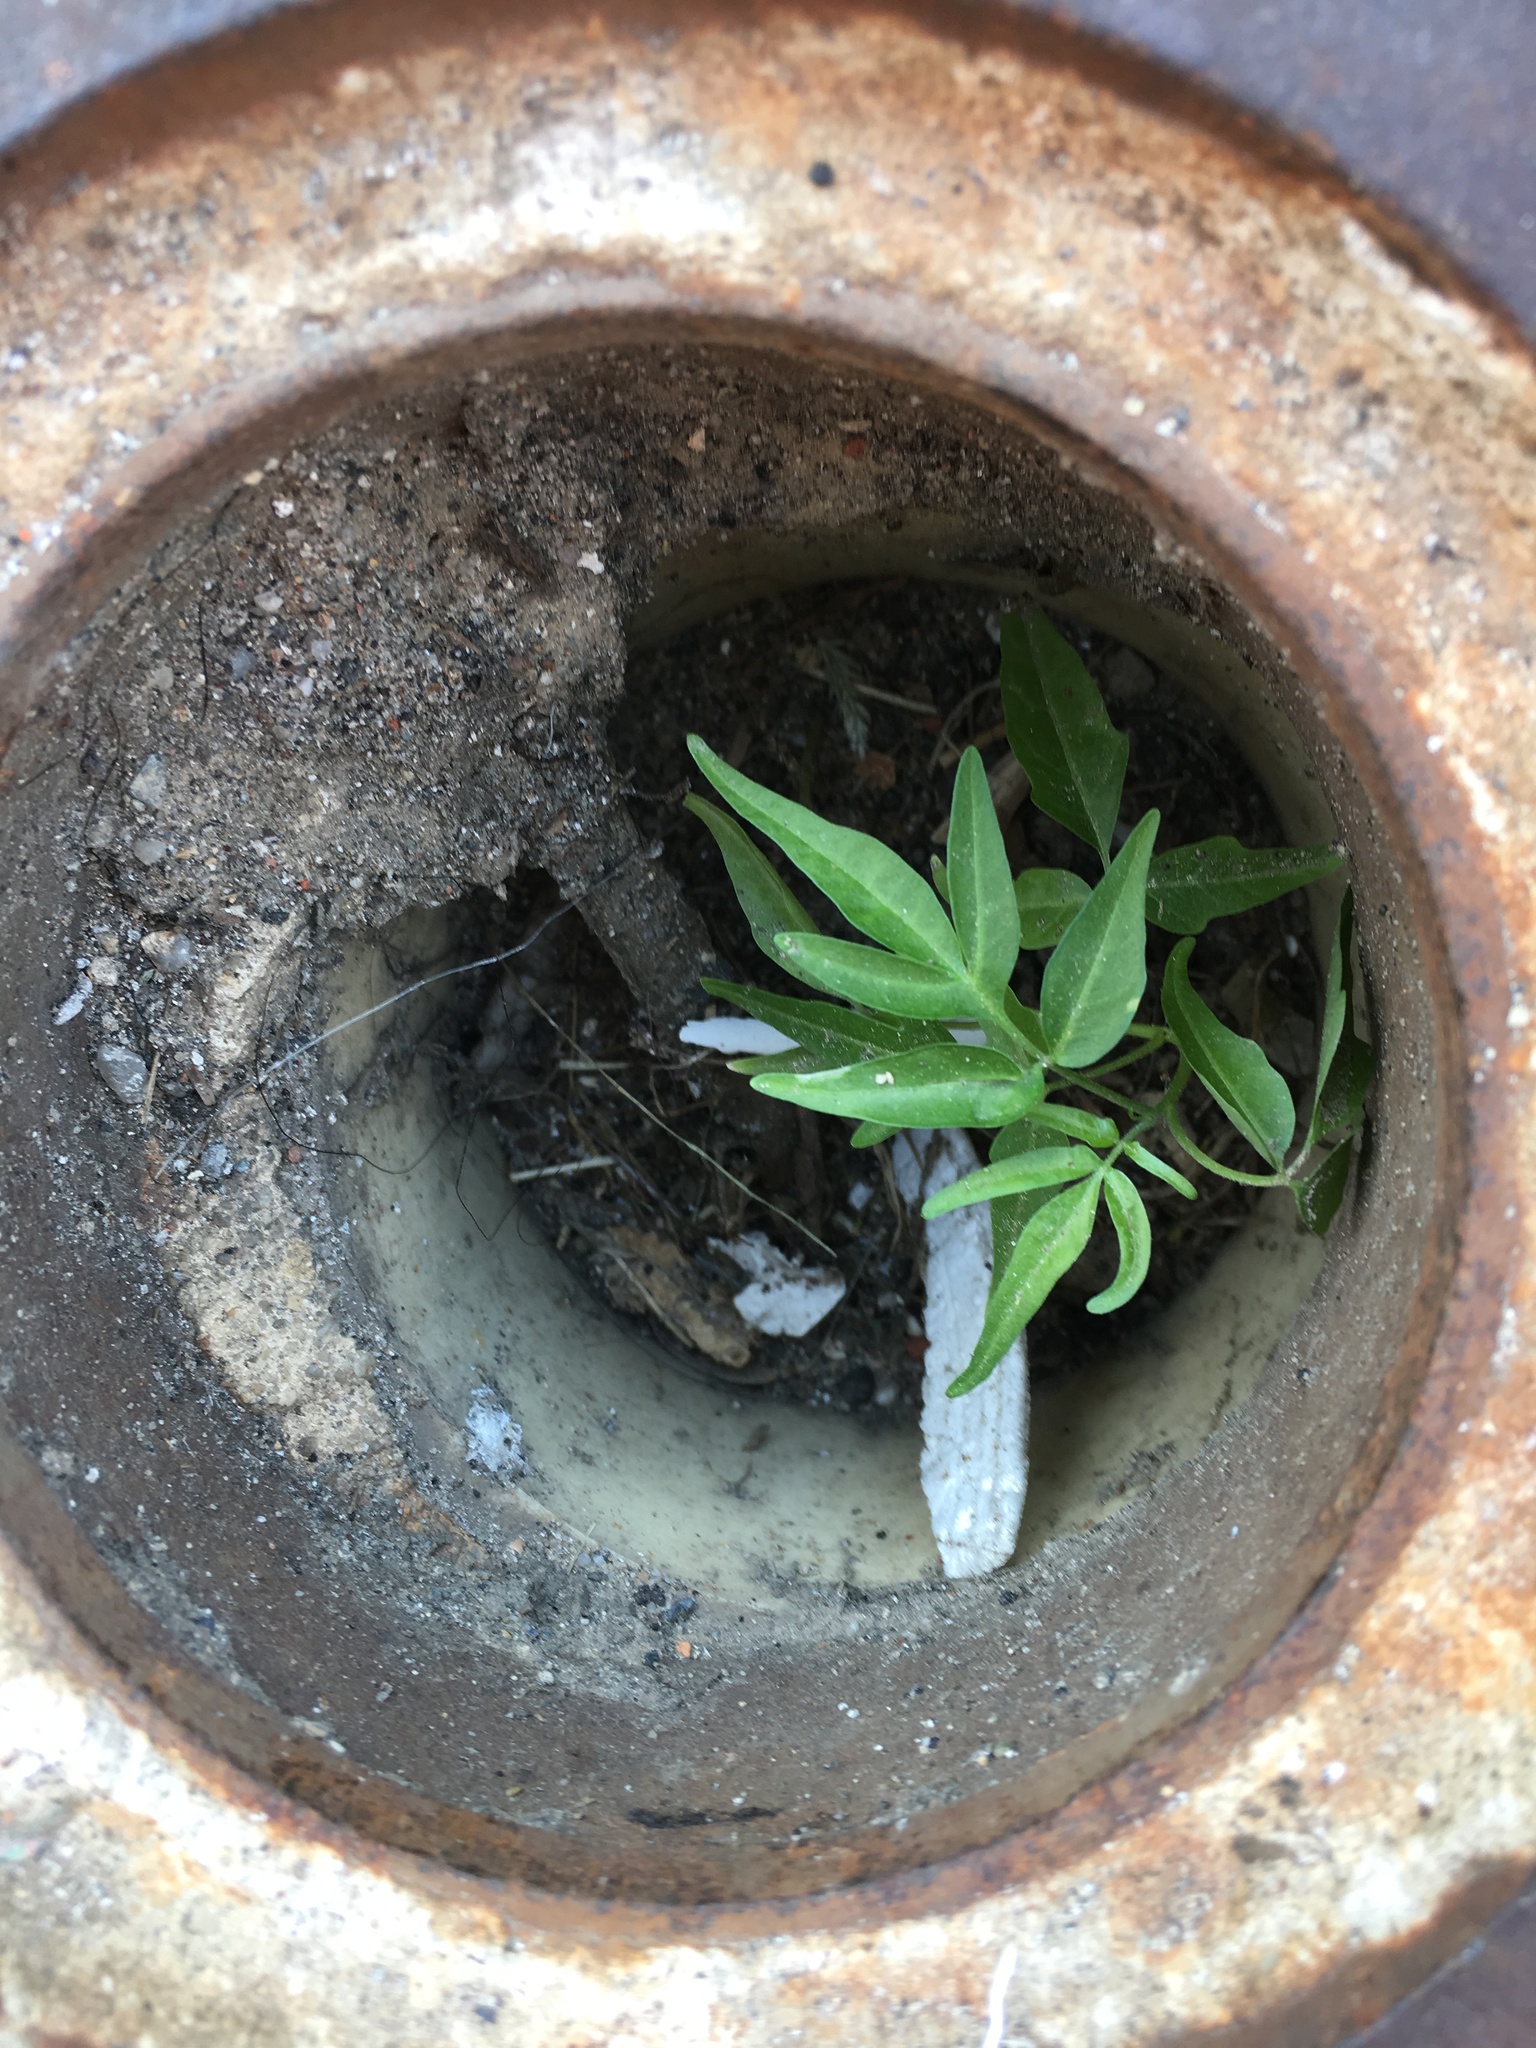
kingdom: Plantae
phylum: Tracheophyta
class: Magnoliopsida
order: Sapindales
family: Simaroubaceae
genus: Ailanthus
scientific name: Ailanthus altissima
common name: Tree-of-heaven
